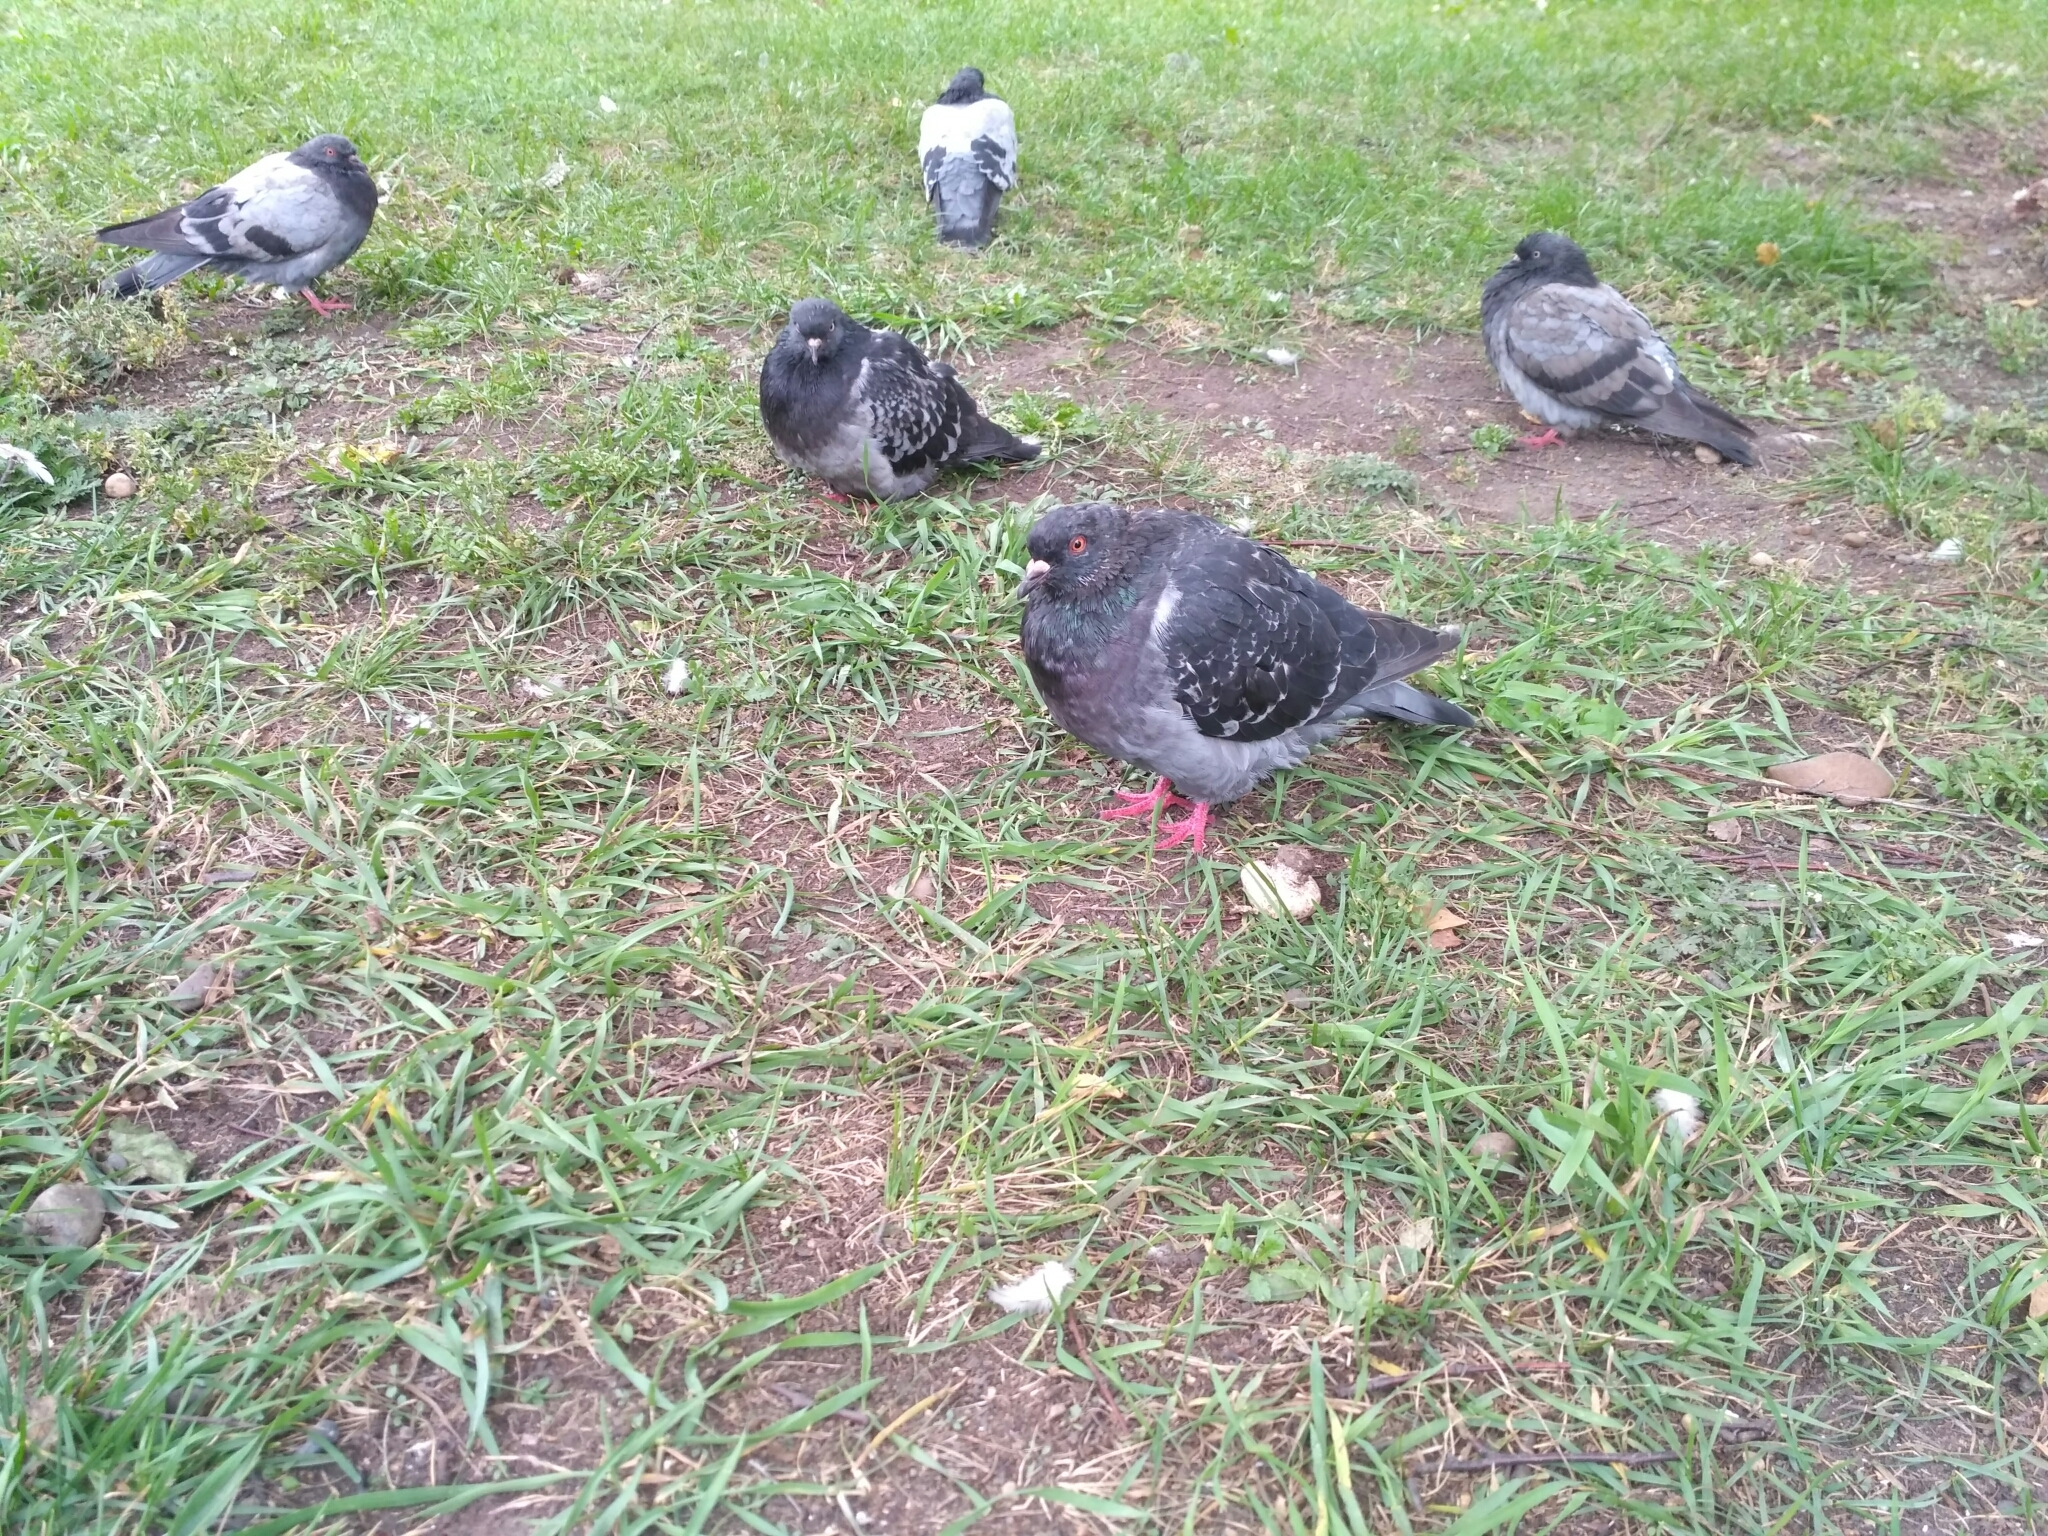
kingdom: Animalia
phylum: Chordata
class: Aves
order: Columbiformes
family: Columbidae
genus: Columba
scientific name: Columba livia
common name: Rock pigeon
